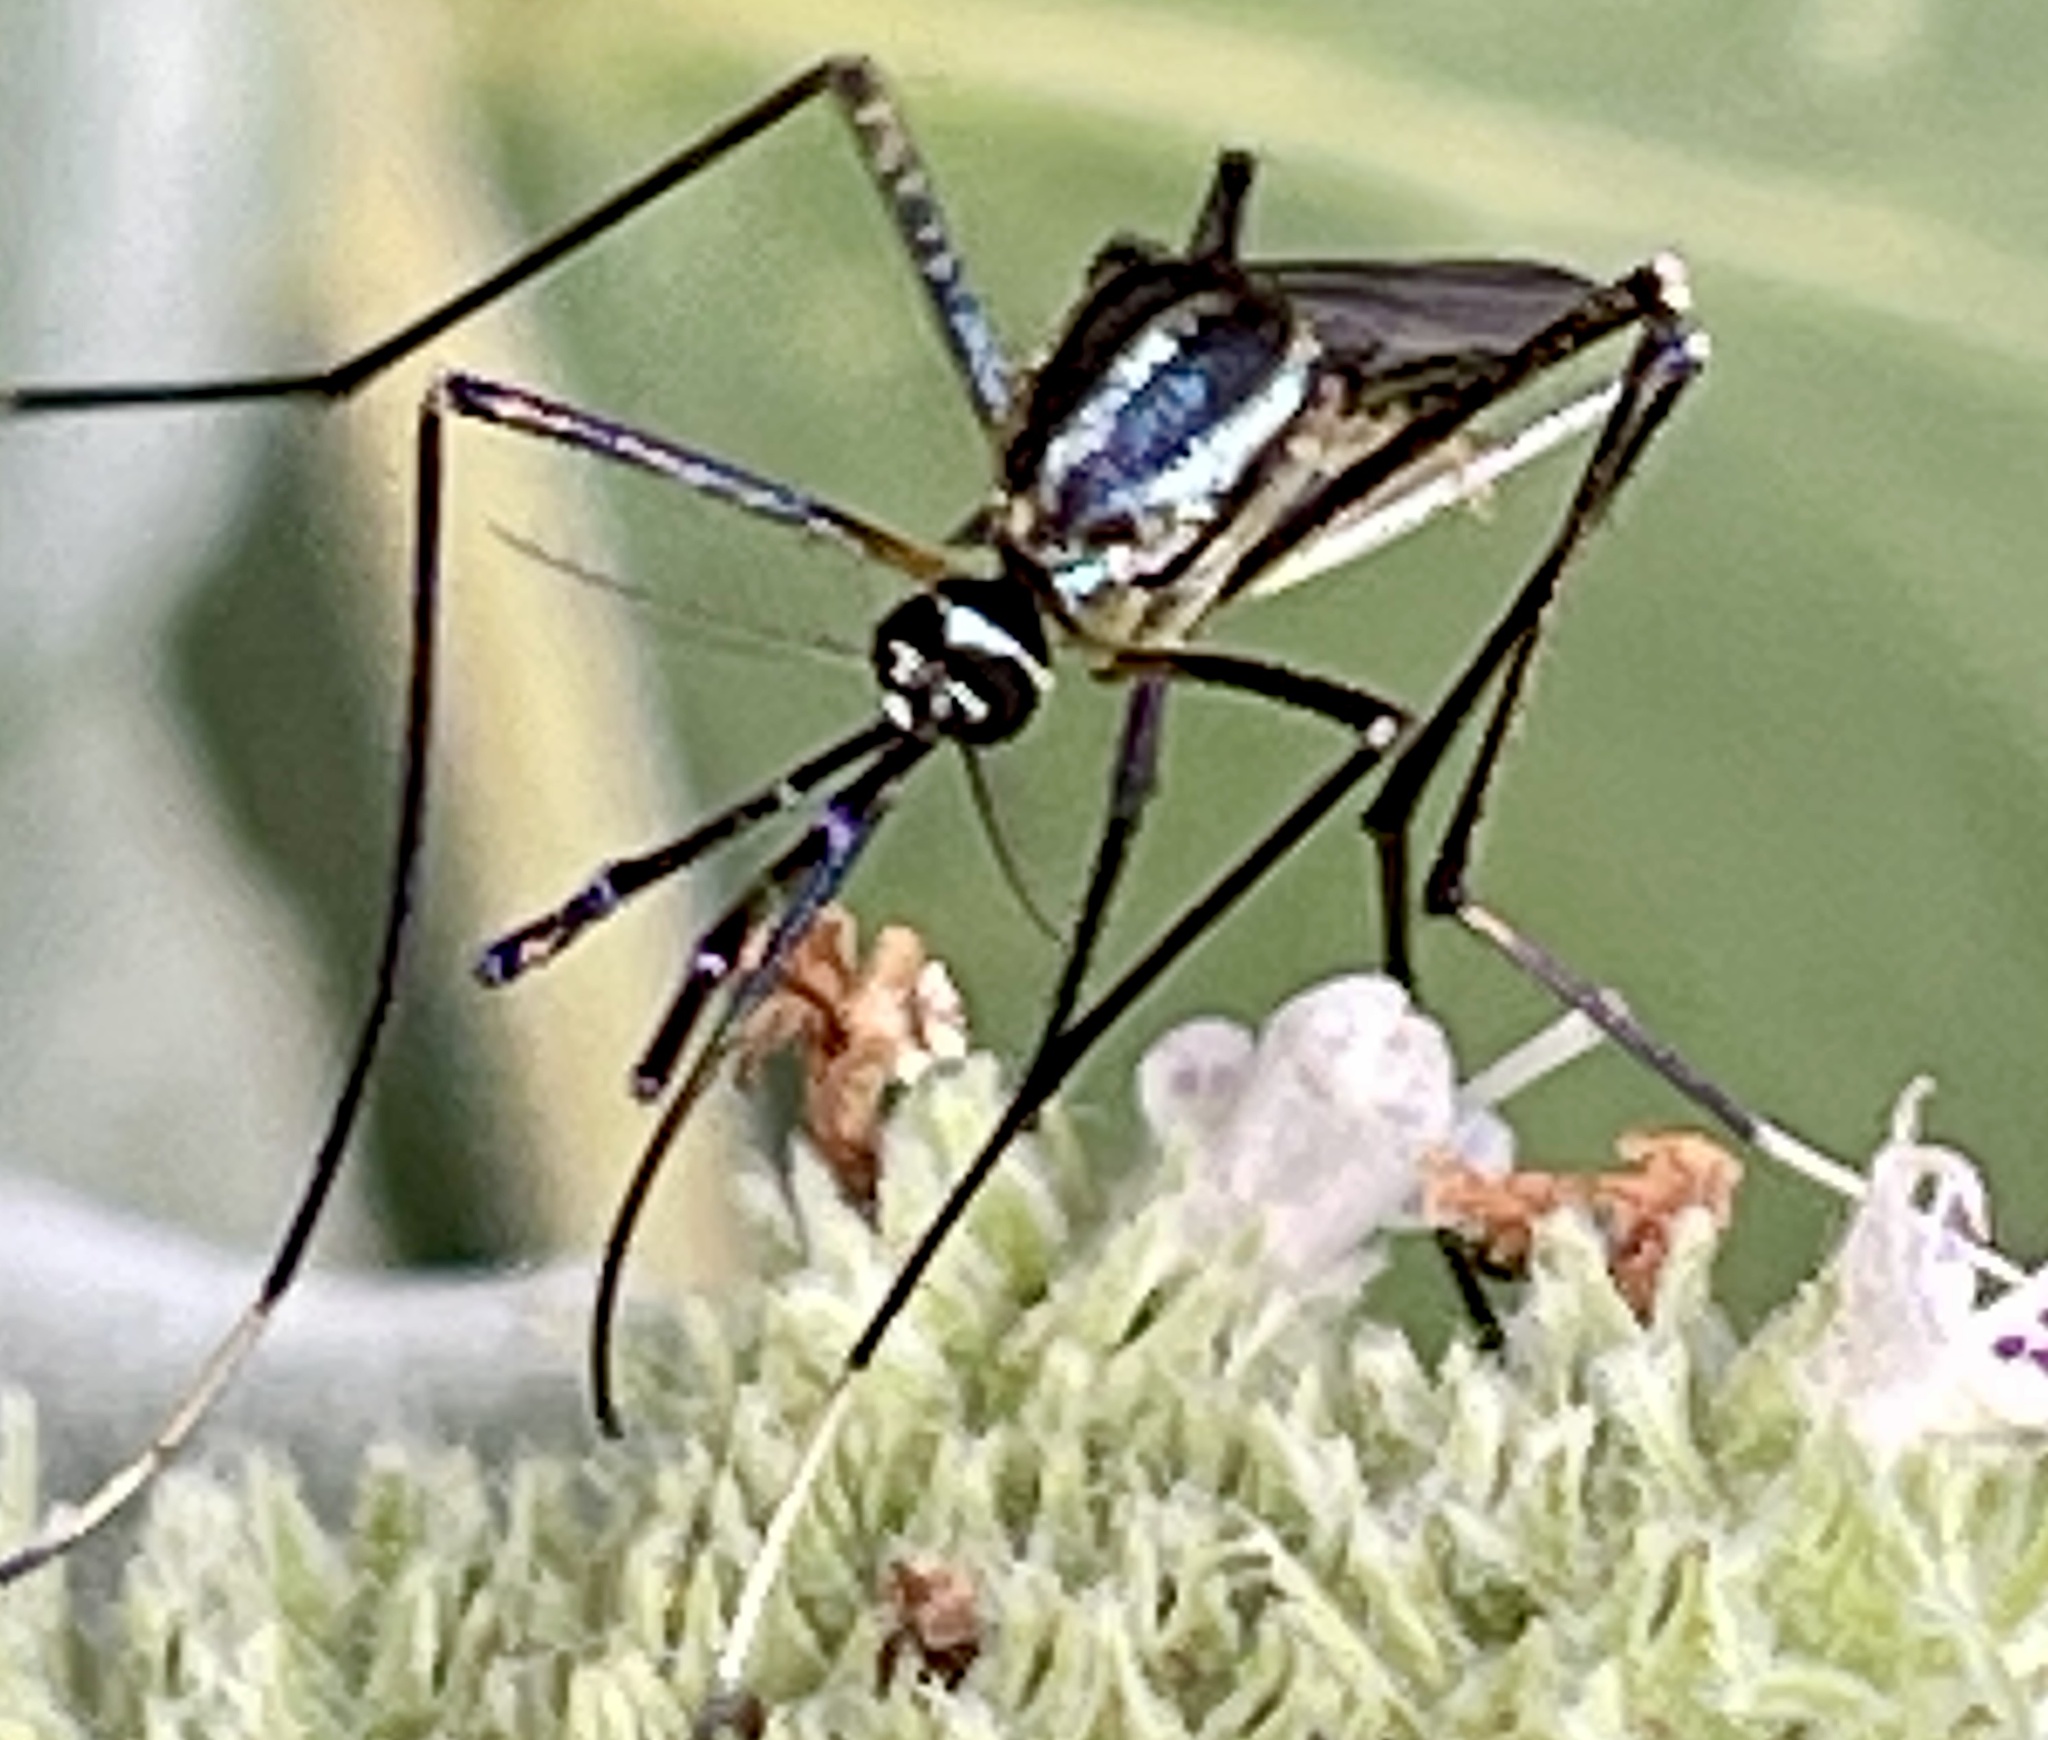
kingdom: Animalia
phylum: Arthropoda
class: Insecta
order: Diptera
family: Culicidae
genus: Toxorhynchites
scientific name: Toxorhynchites rutilus
